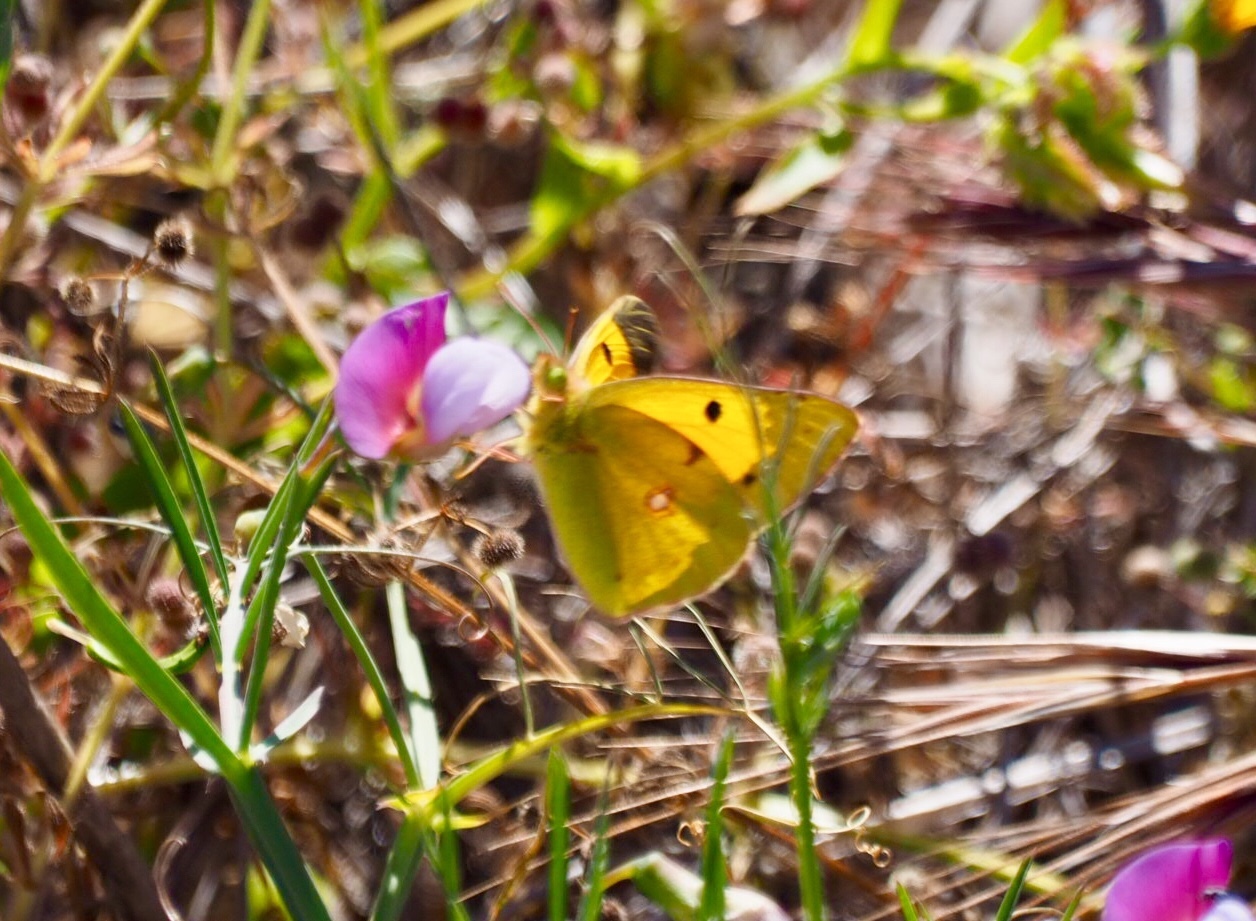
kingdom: Animalia
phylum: Arthropoda
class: Insecta
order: Lepidoptera
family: Pieridae
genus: Colias
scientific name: Colias croceus
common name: Clouded yellow
